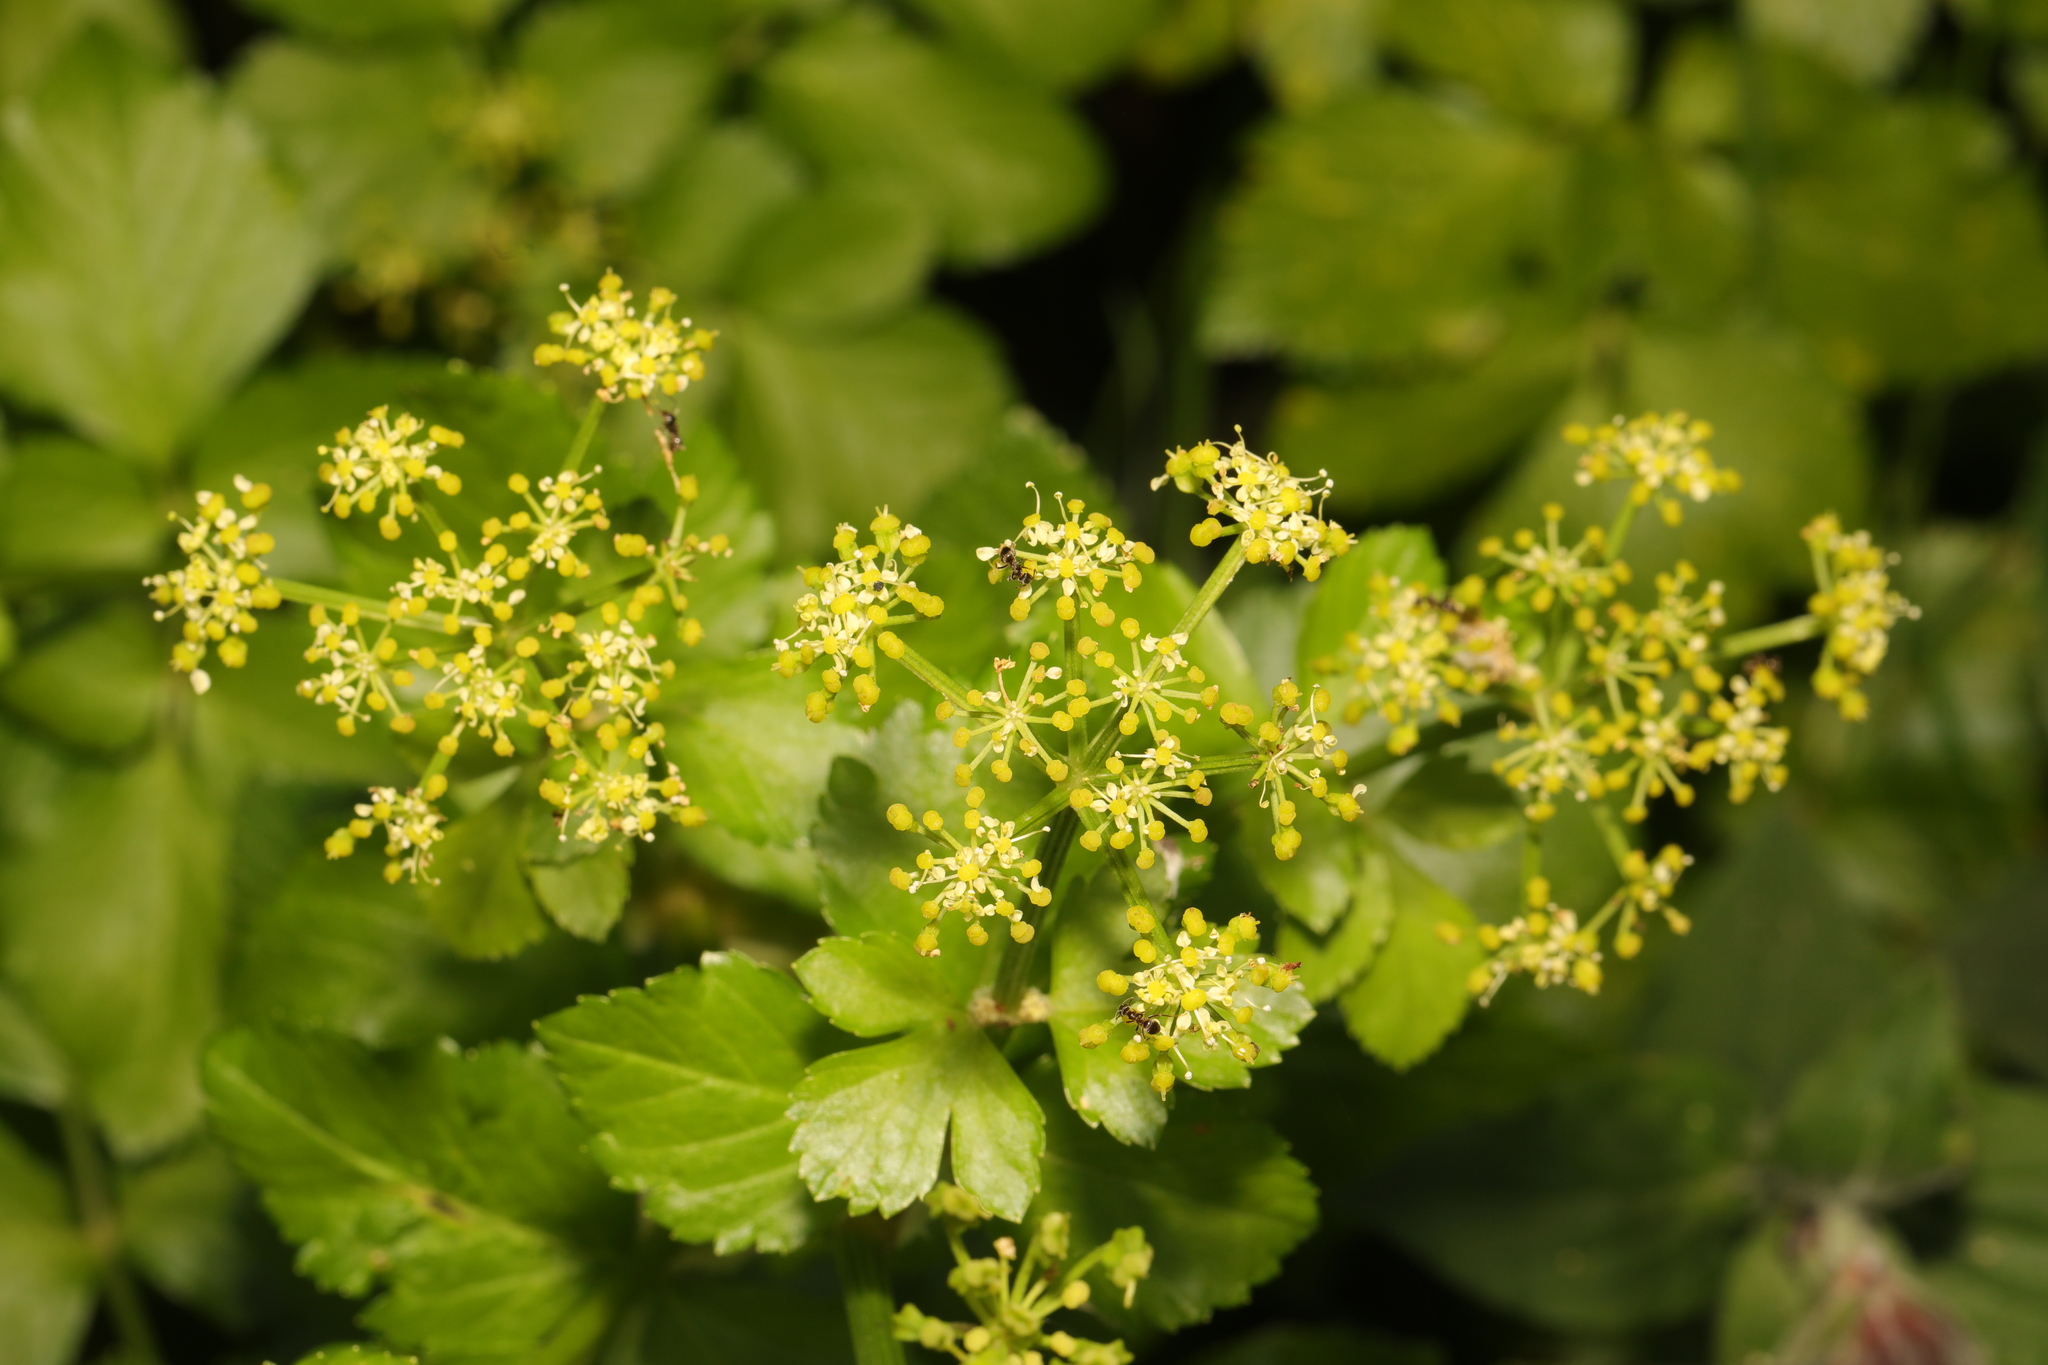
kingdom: Plantae
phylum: Tracheophyta
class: Magnoliopsida
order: Apiales
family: Apiaceae
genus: Smyrnium
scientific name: Smyrnium olusatrum
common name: Alexanders
